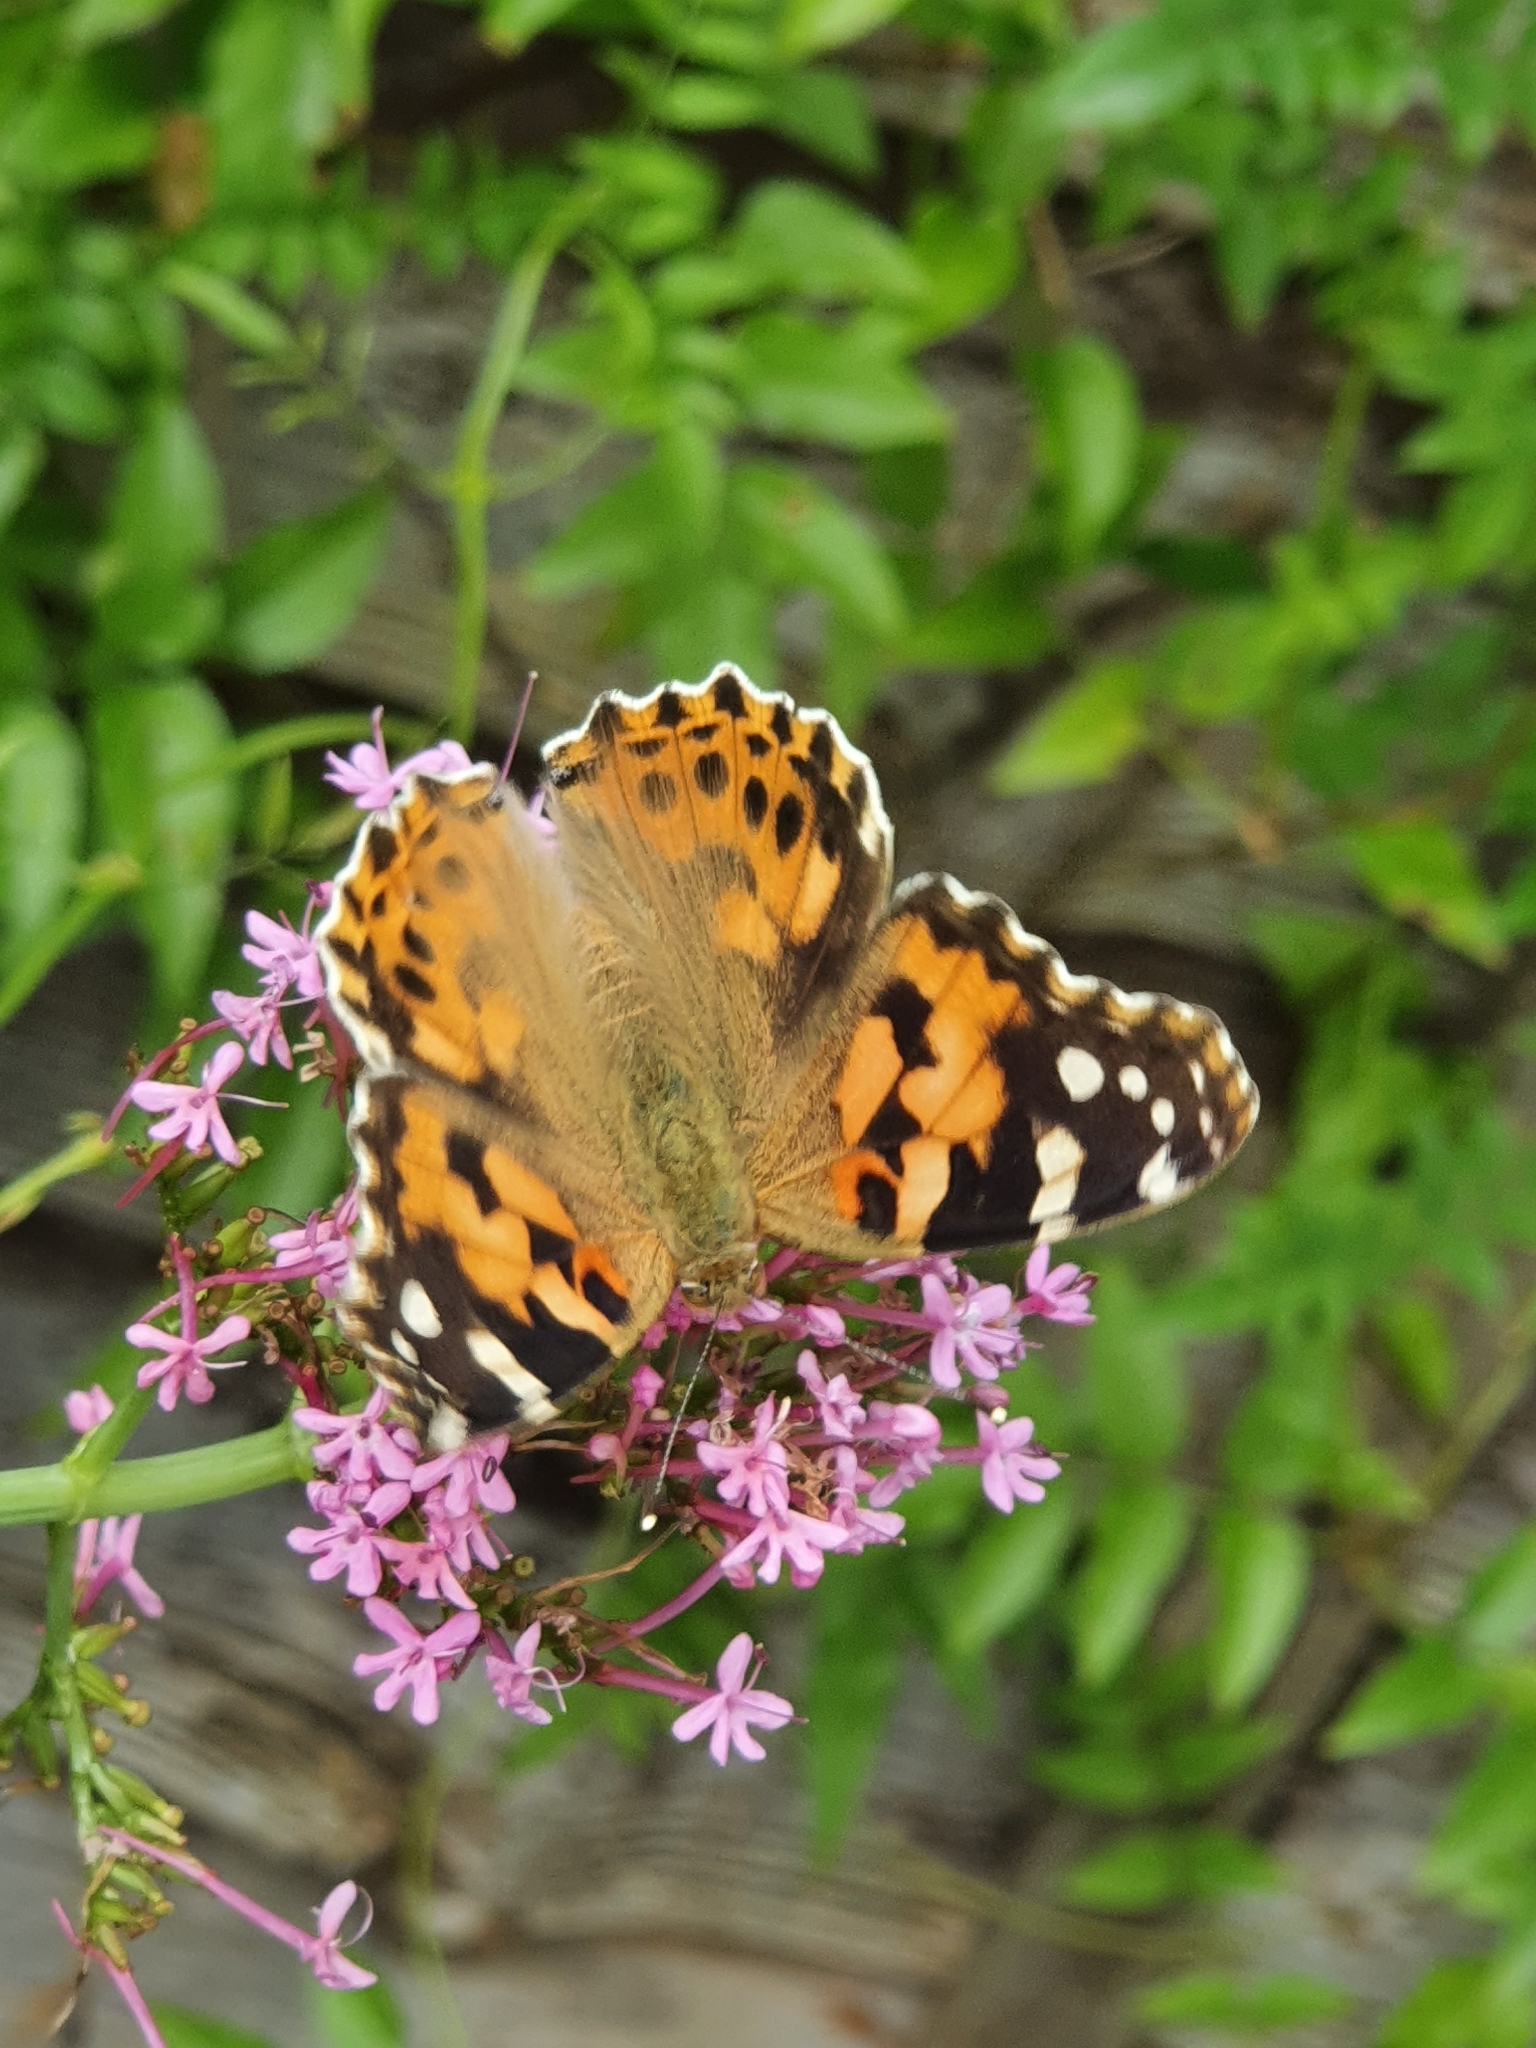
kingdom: Animalia
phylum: Arthropoda
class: Insecta
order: Lepidoptera
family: Nymphalidae
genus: Vanessa
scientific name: Vanessa cardui
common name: Painted lady
